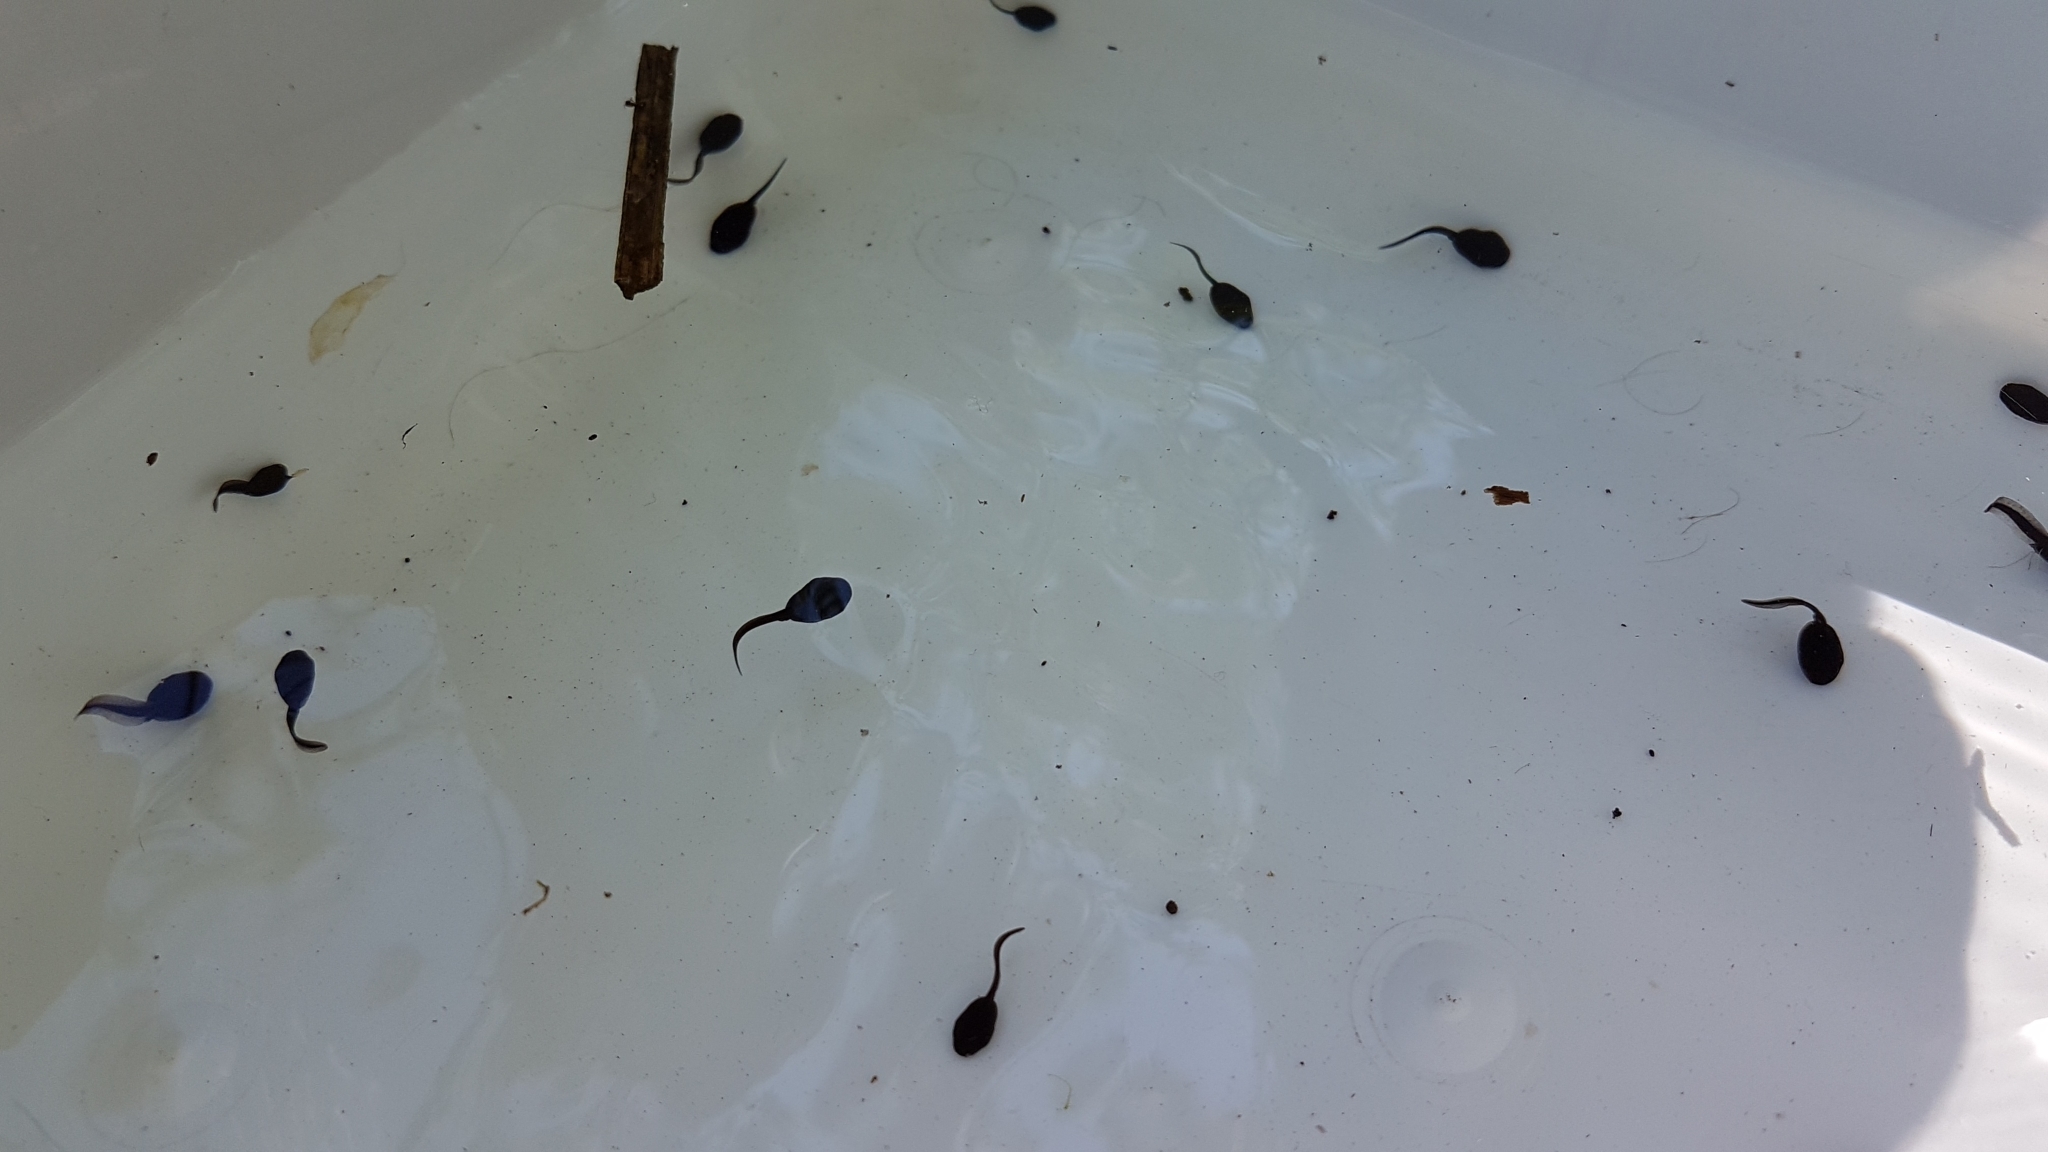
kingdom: Animalia
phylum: Chordata
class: Amphibia
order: Anura
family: Bufonidae
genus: Bufo
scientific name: Bufo bufo
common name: Common toad
